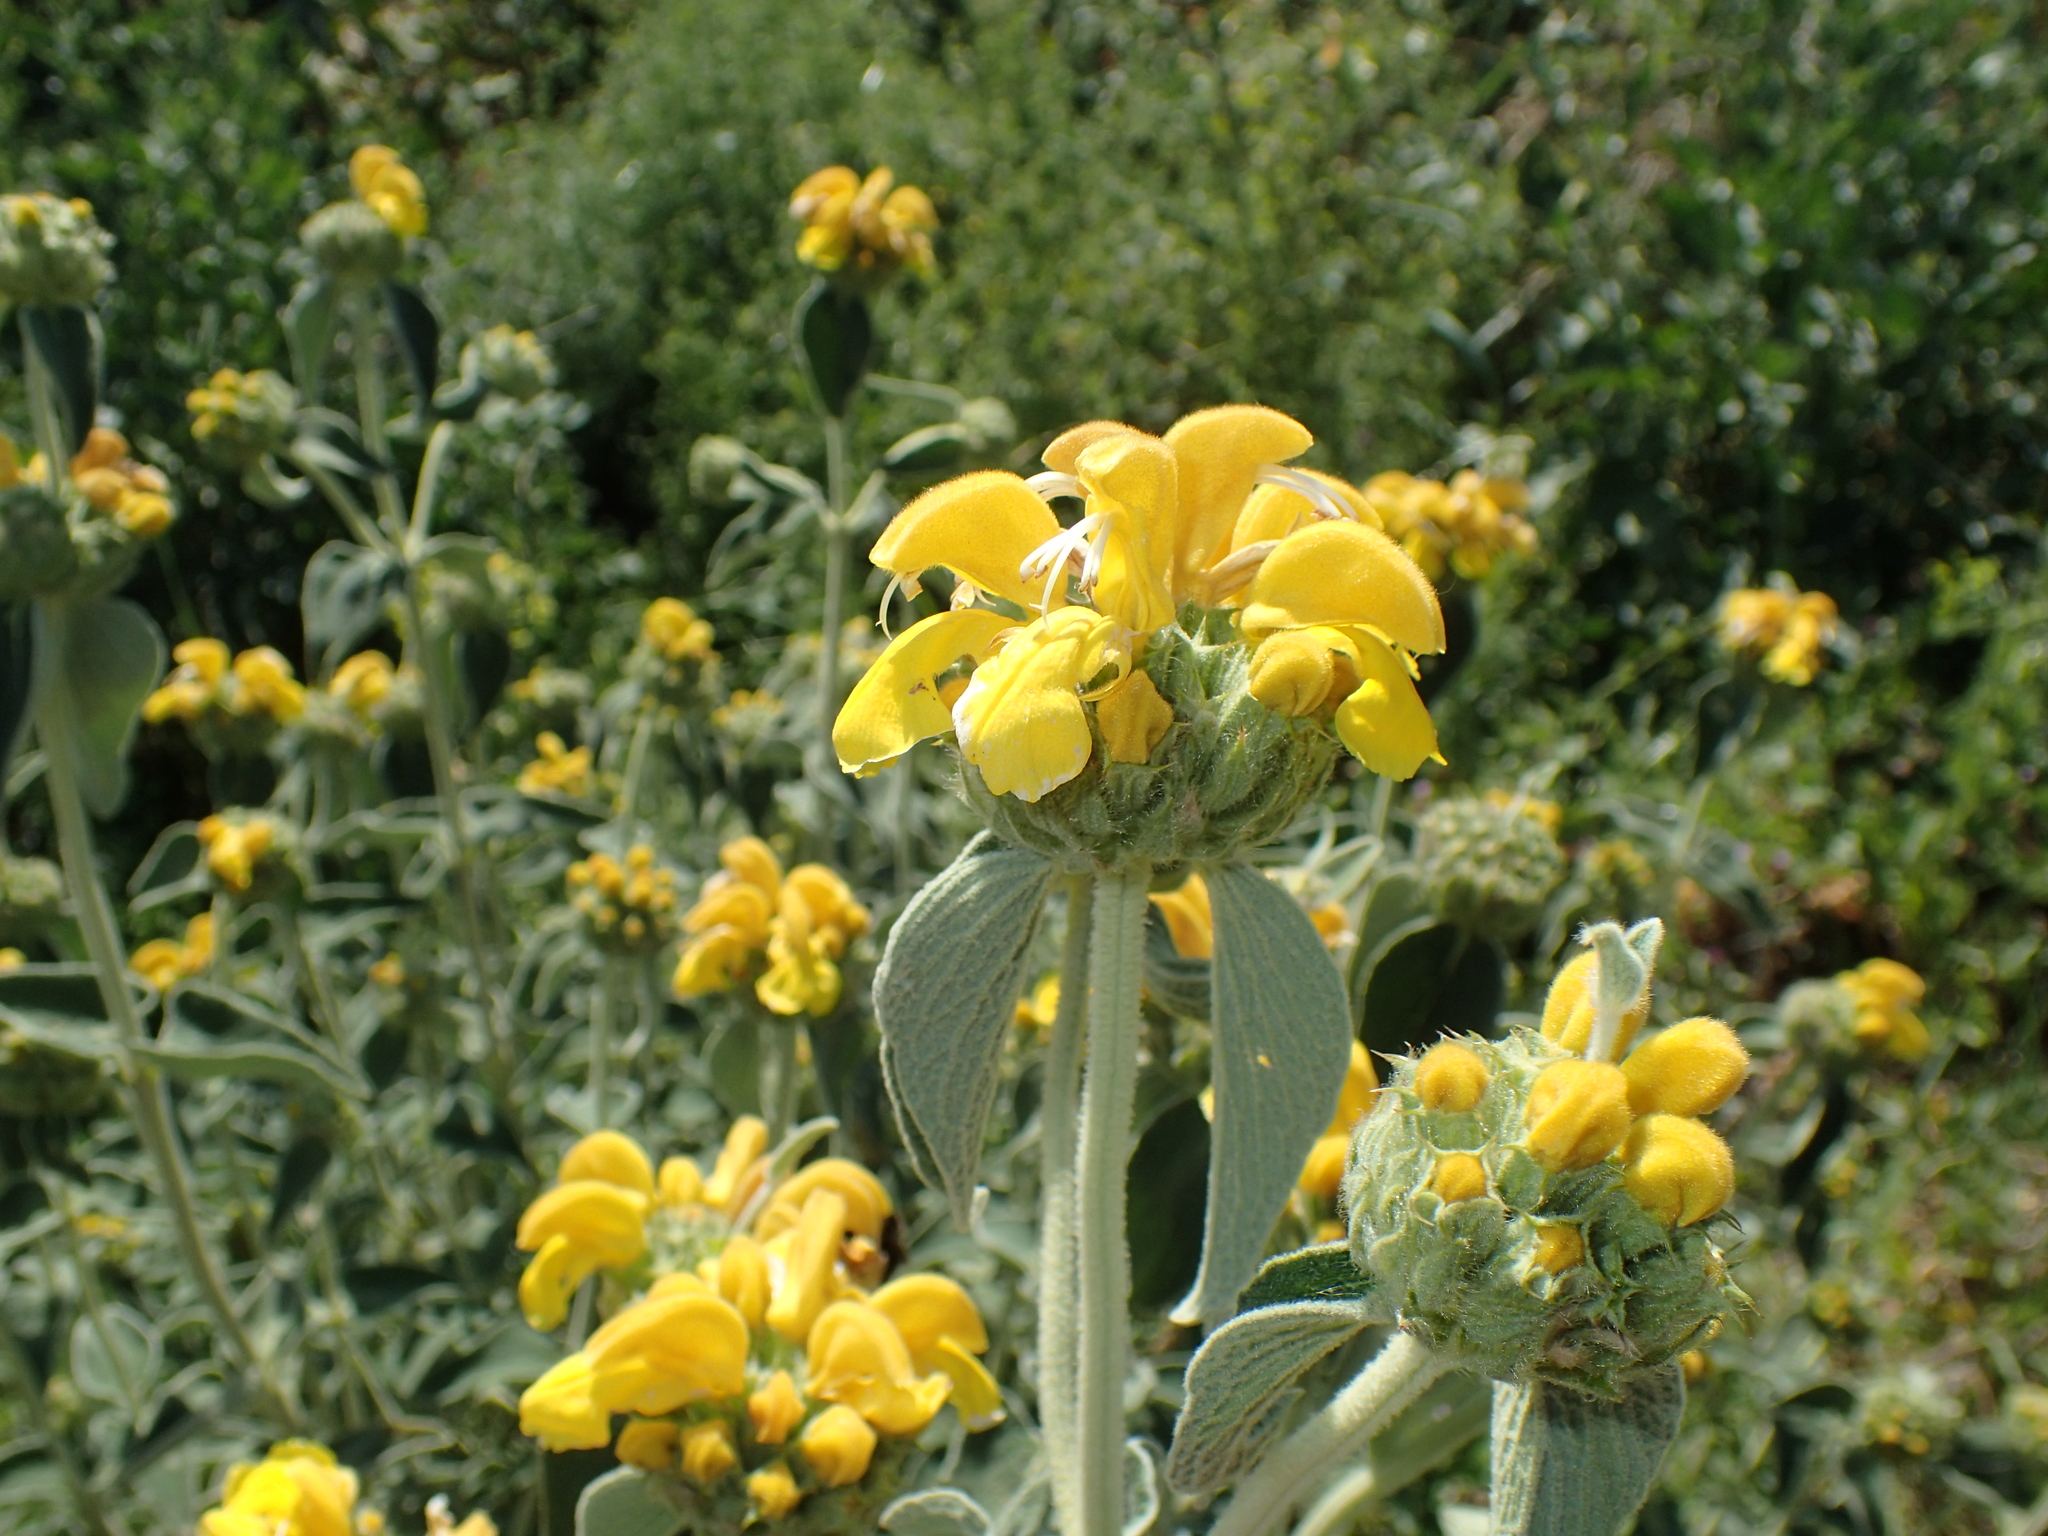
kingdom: Plantae
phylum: Tracheophyta
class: Magnoliopsida
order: Lamiales
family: Lamiaceae
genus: Phlomis
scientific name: Phlomis fruticosa
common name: Jerusalem sage
